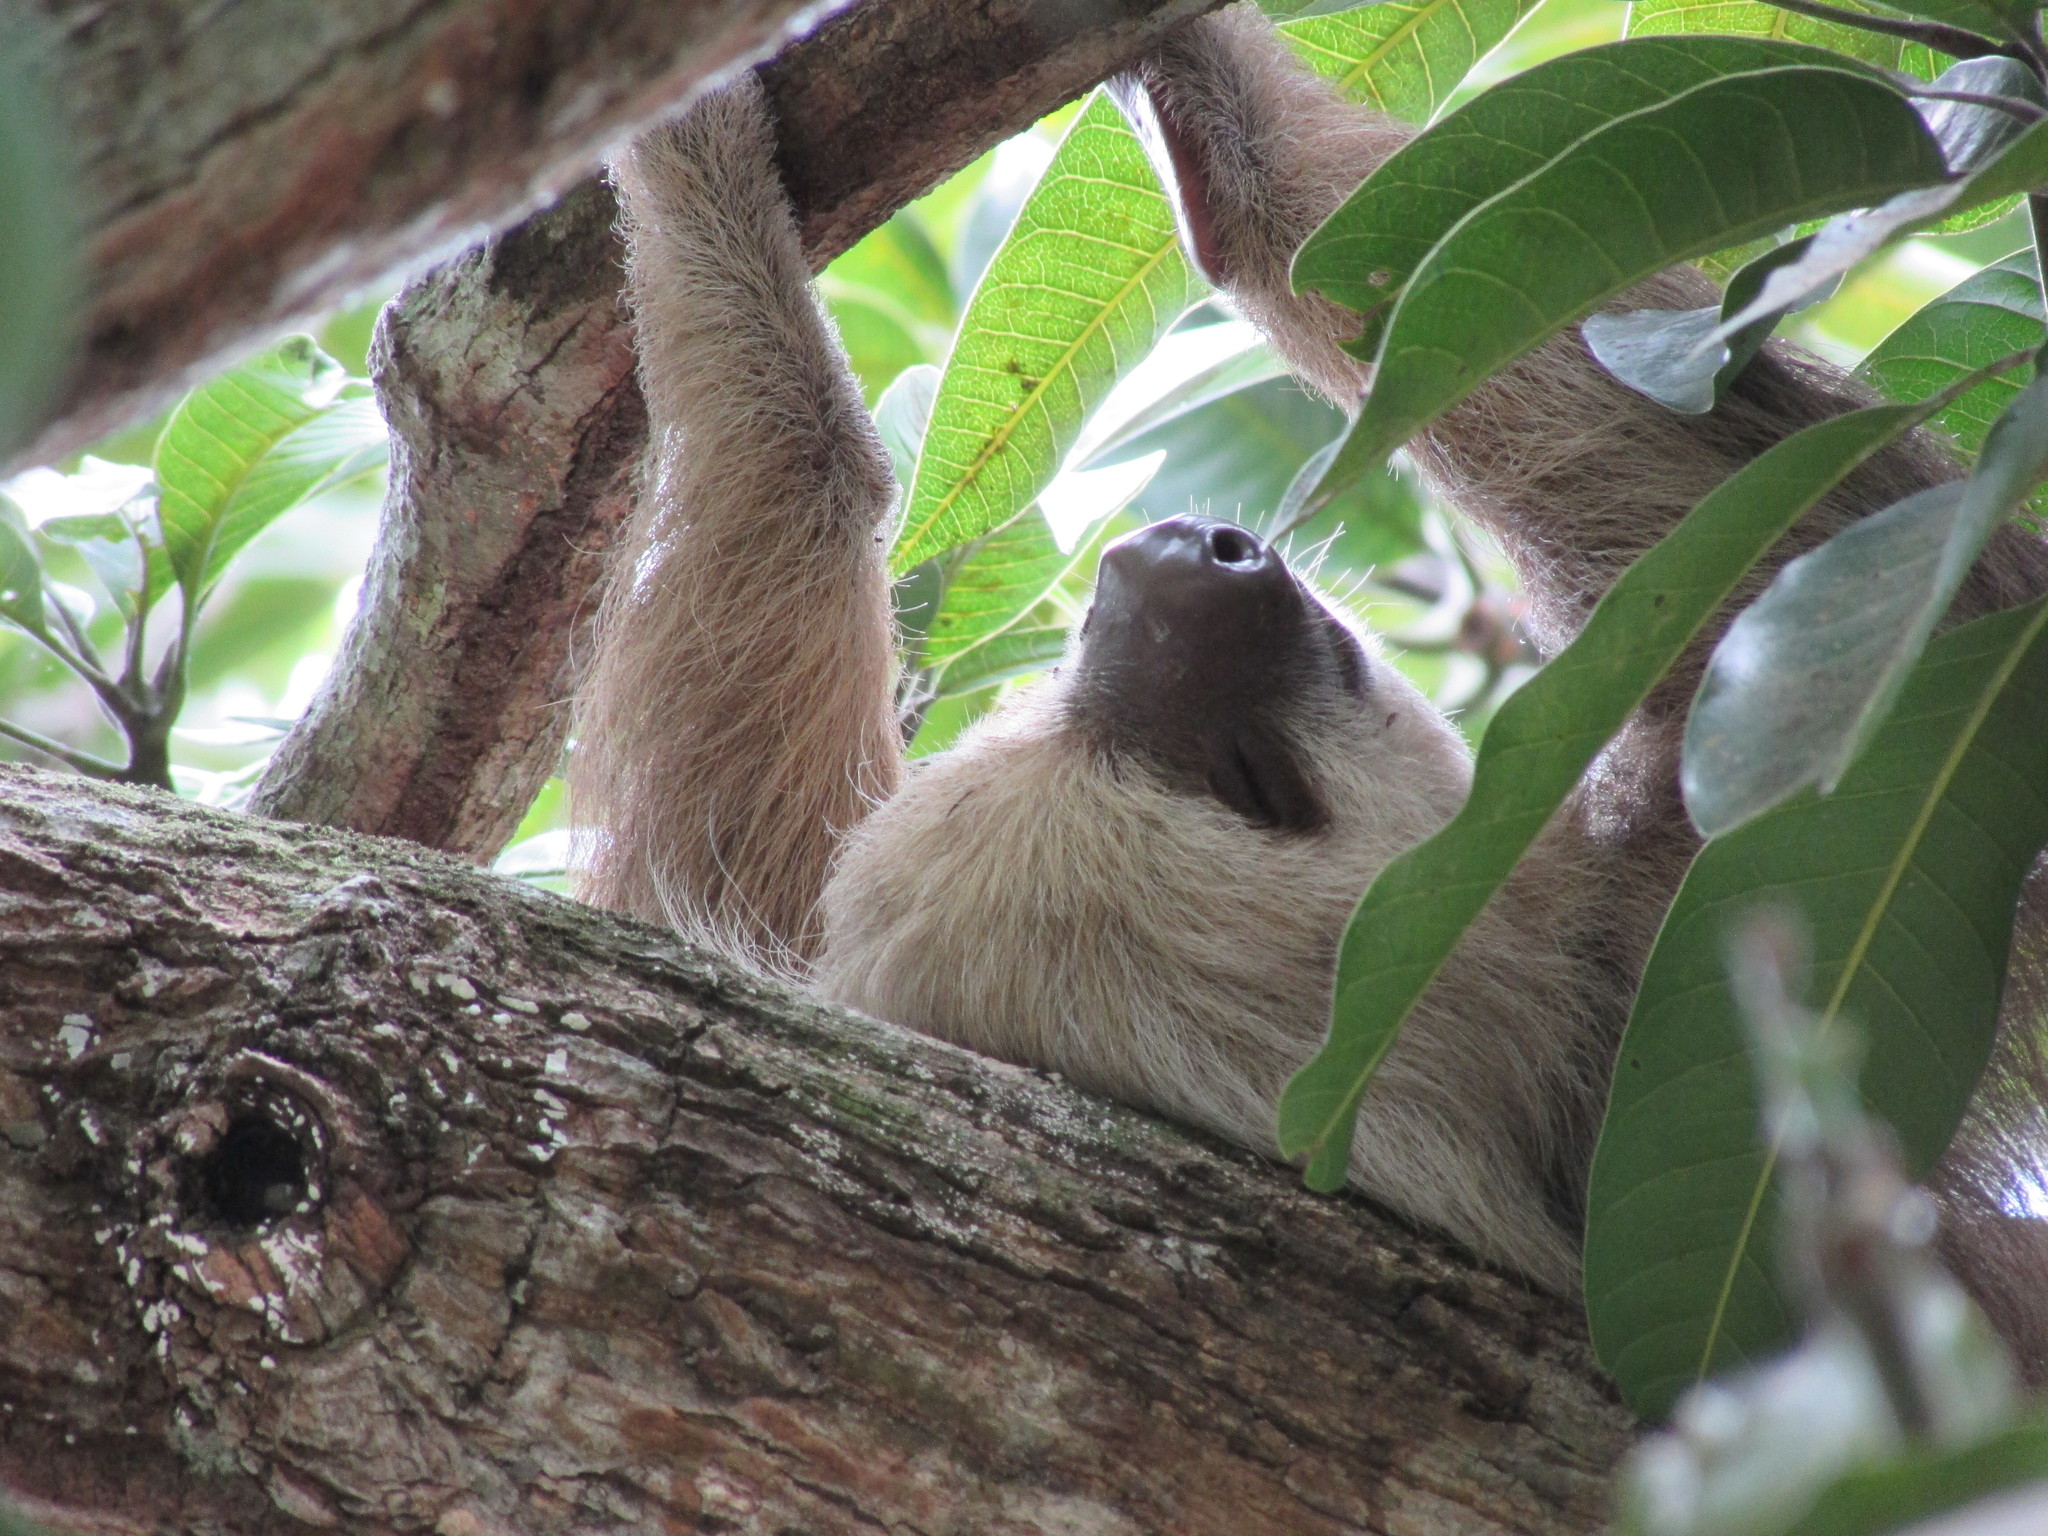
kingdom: Animalia
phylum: Chordata
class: Mammalia
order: Pilosa
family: Megalonychidae
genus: Choloepus
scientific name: Choloepus hoffmanni
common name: Hoffmann's two-toed sloth
